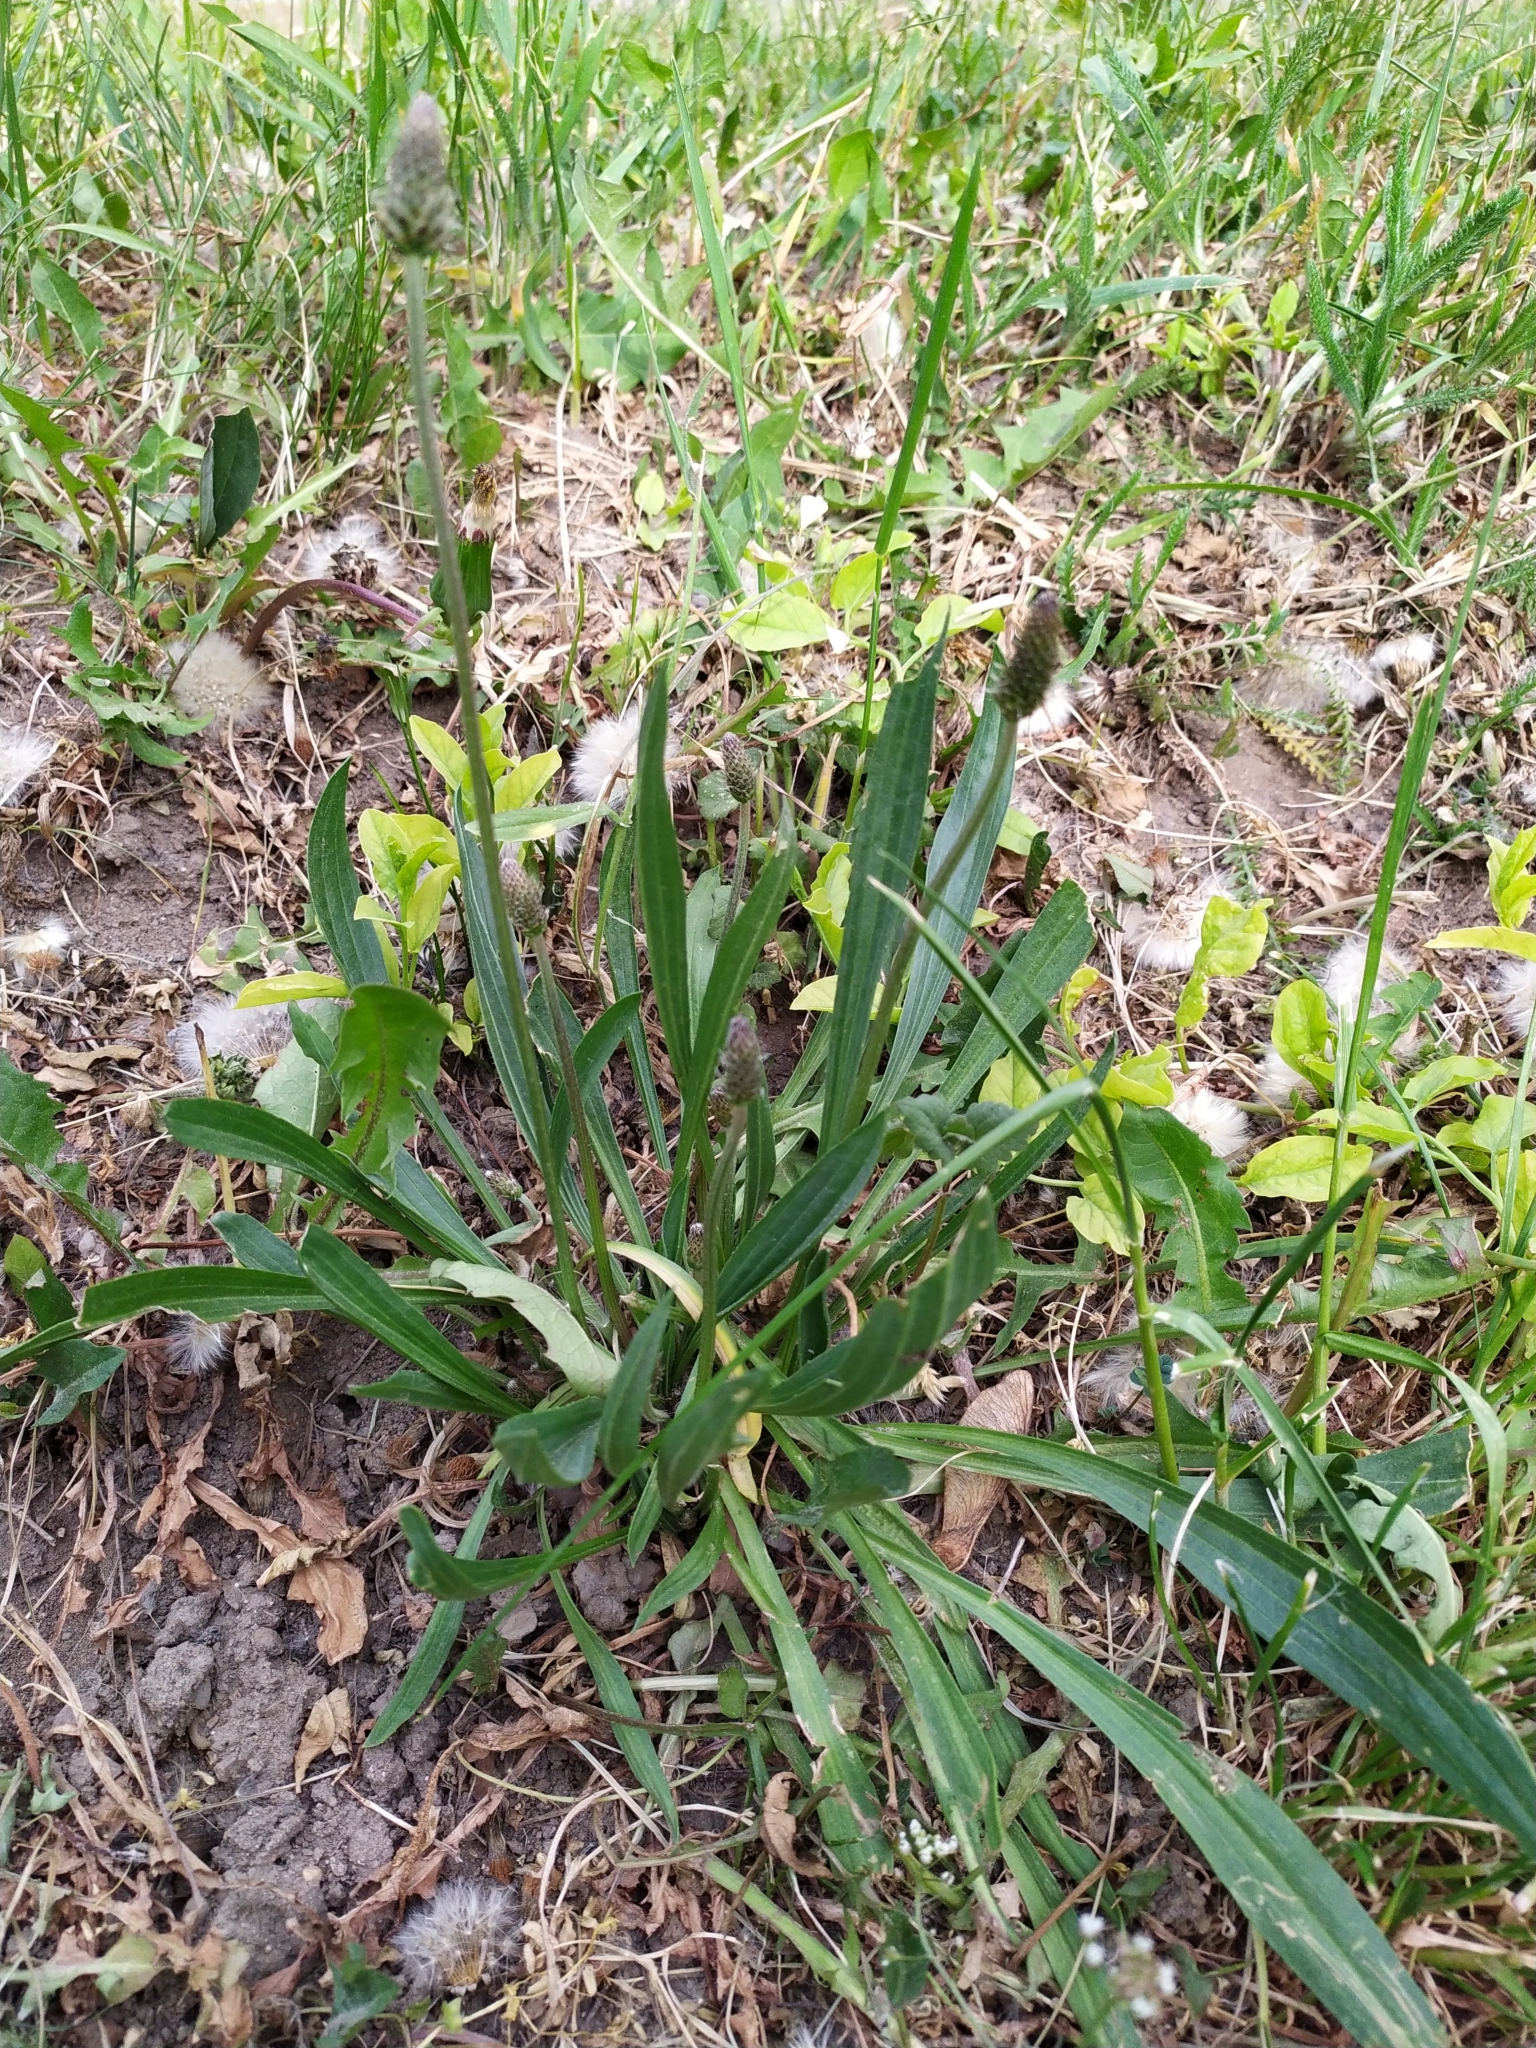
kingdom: Plantae
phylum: Tracheophyta
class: Magnoliopsida
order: Lamiales
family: Plantaginaceae
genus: Plantago
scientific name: Plantago lanceolata
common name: Ribwort plantain
